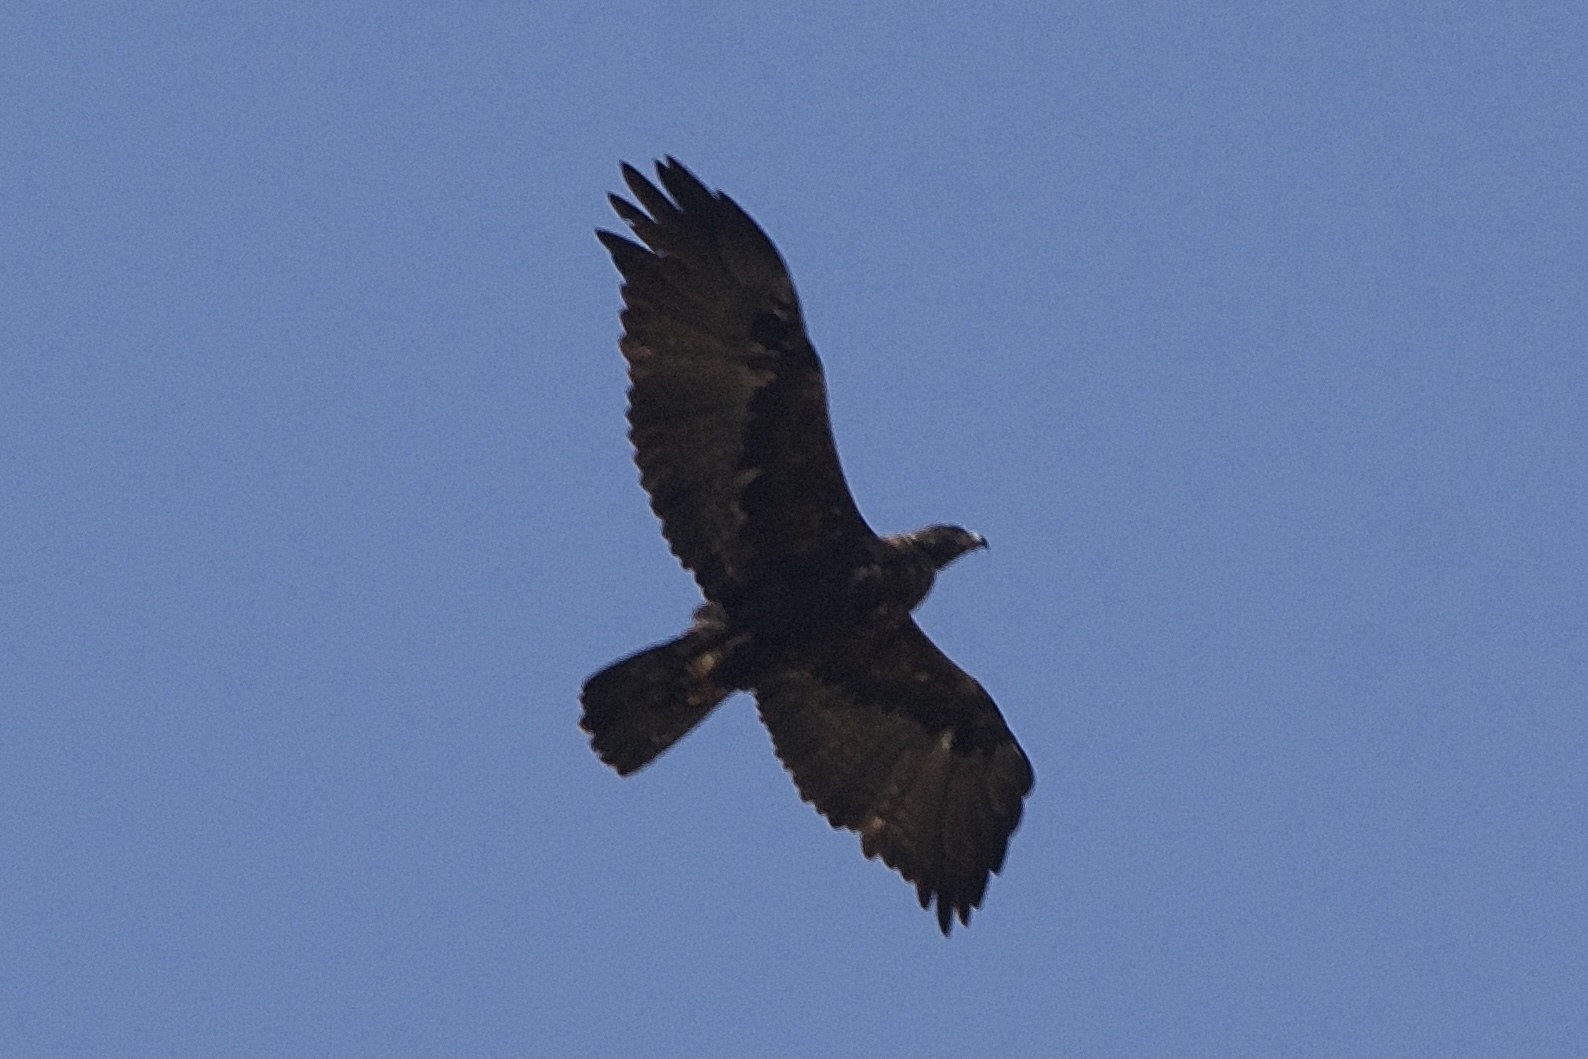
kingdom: Animalia
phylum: Chordata
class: Aves
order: Accipitriformes
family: Accipitridae
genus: Aquila
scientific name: Aquila chrysaetos
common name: Golden eagle
